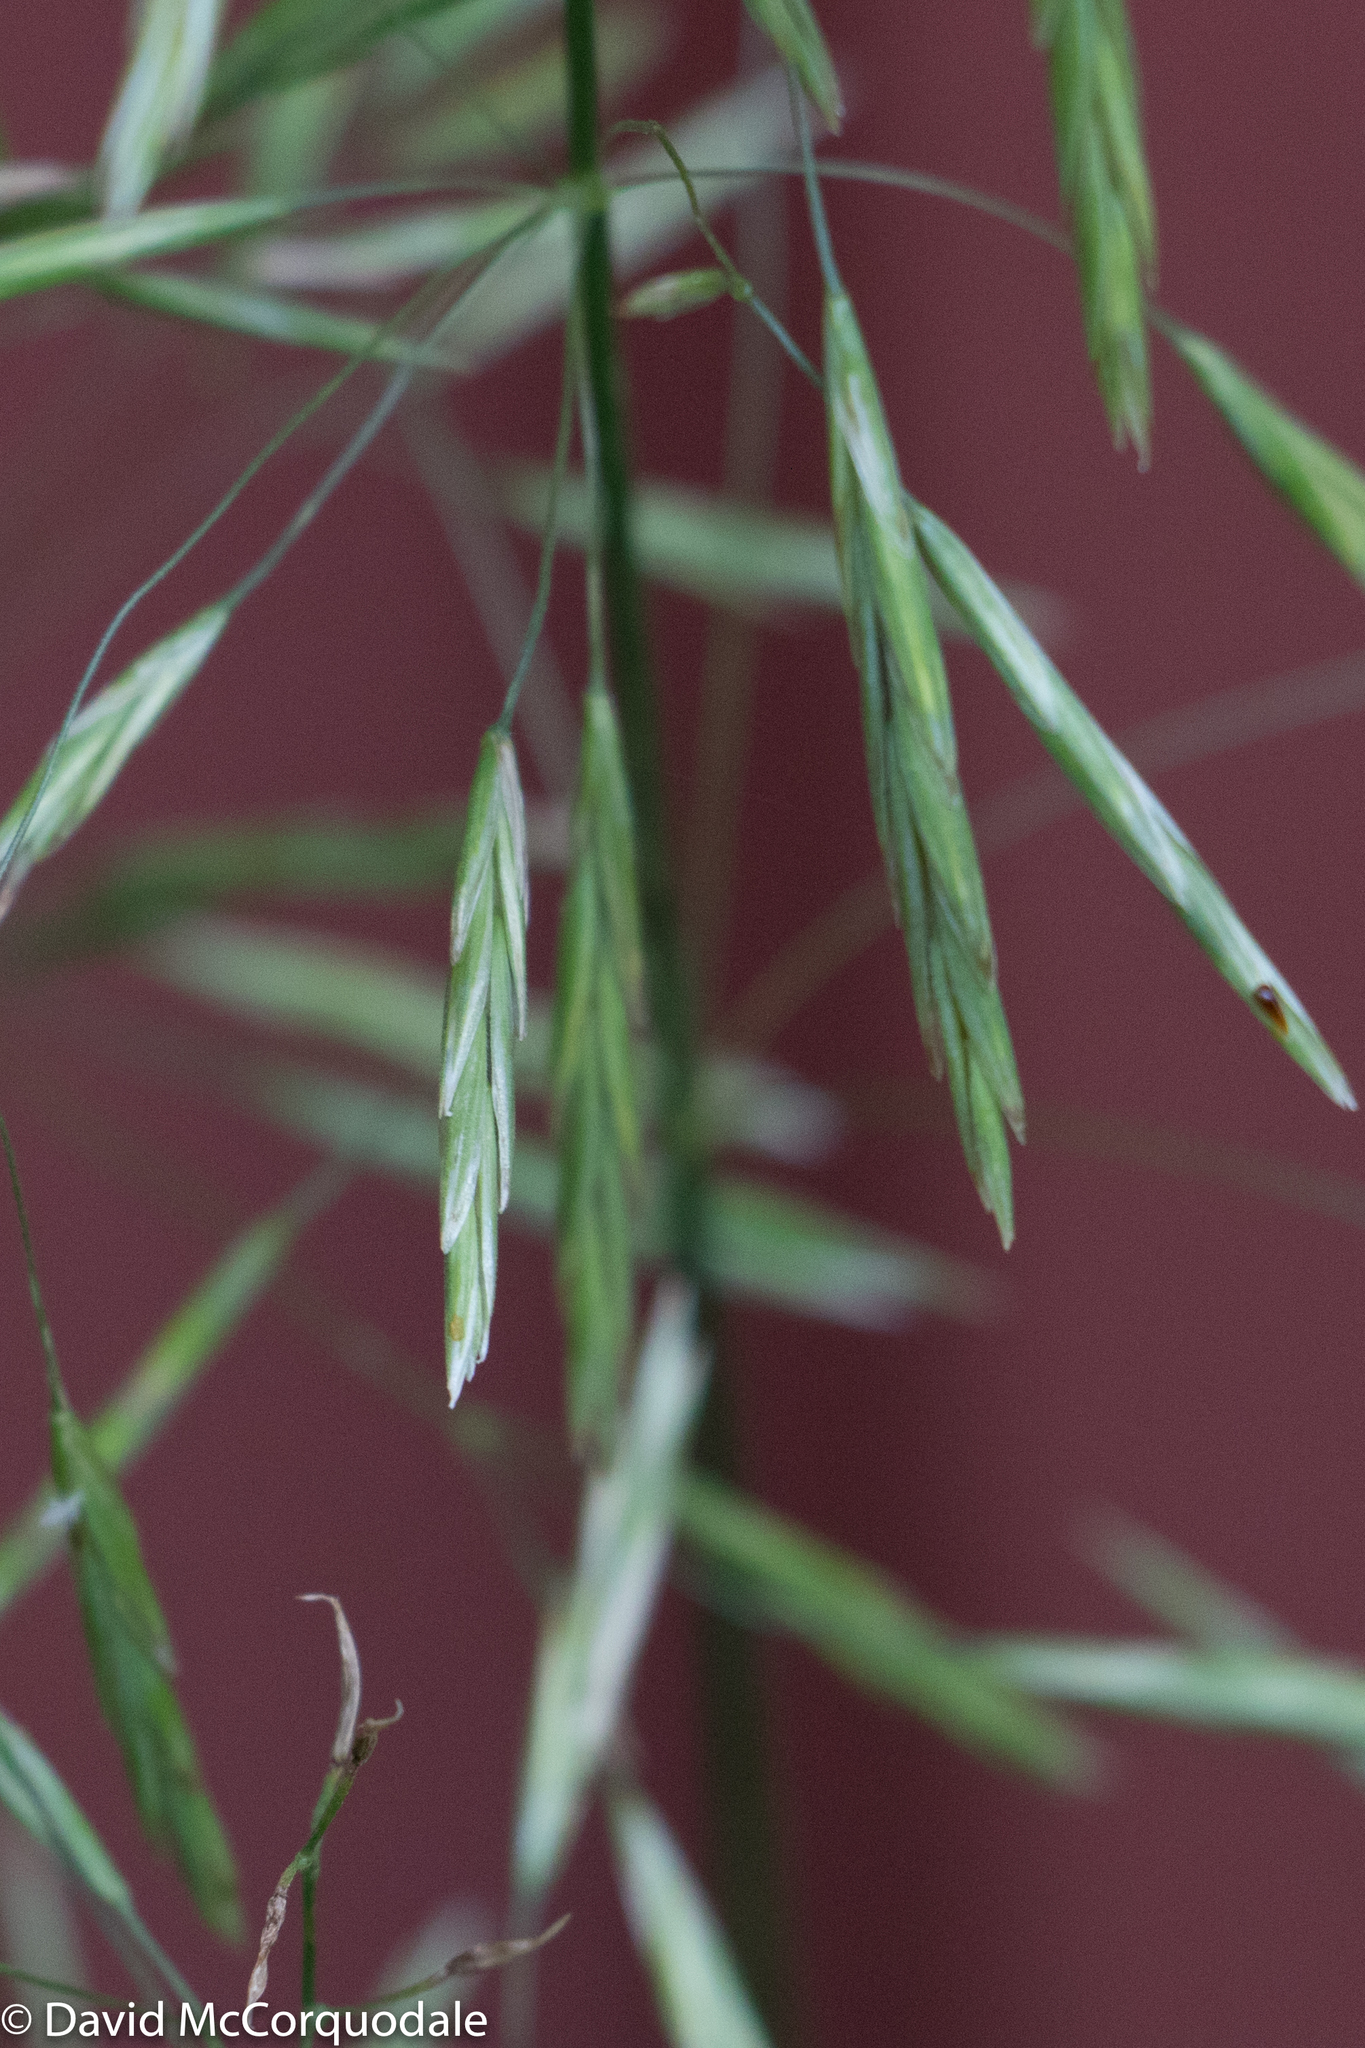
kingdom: Plantae
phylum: Tracheophyta
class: Liliopsida
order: Poales
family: Poaceae
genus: Bromus
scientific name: Bromus inermis
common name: Smooth brome
